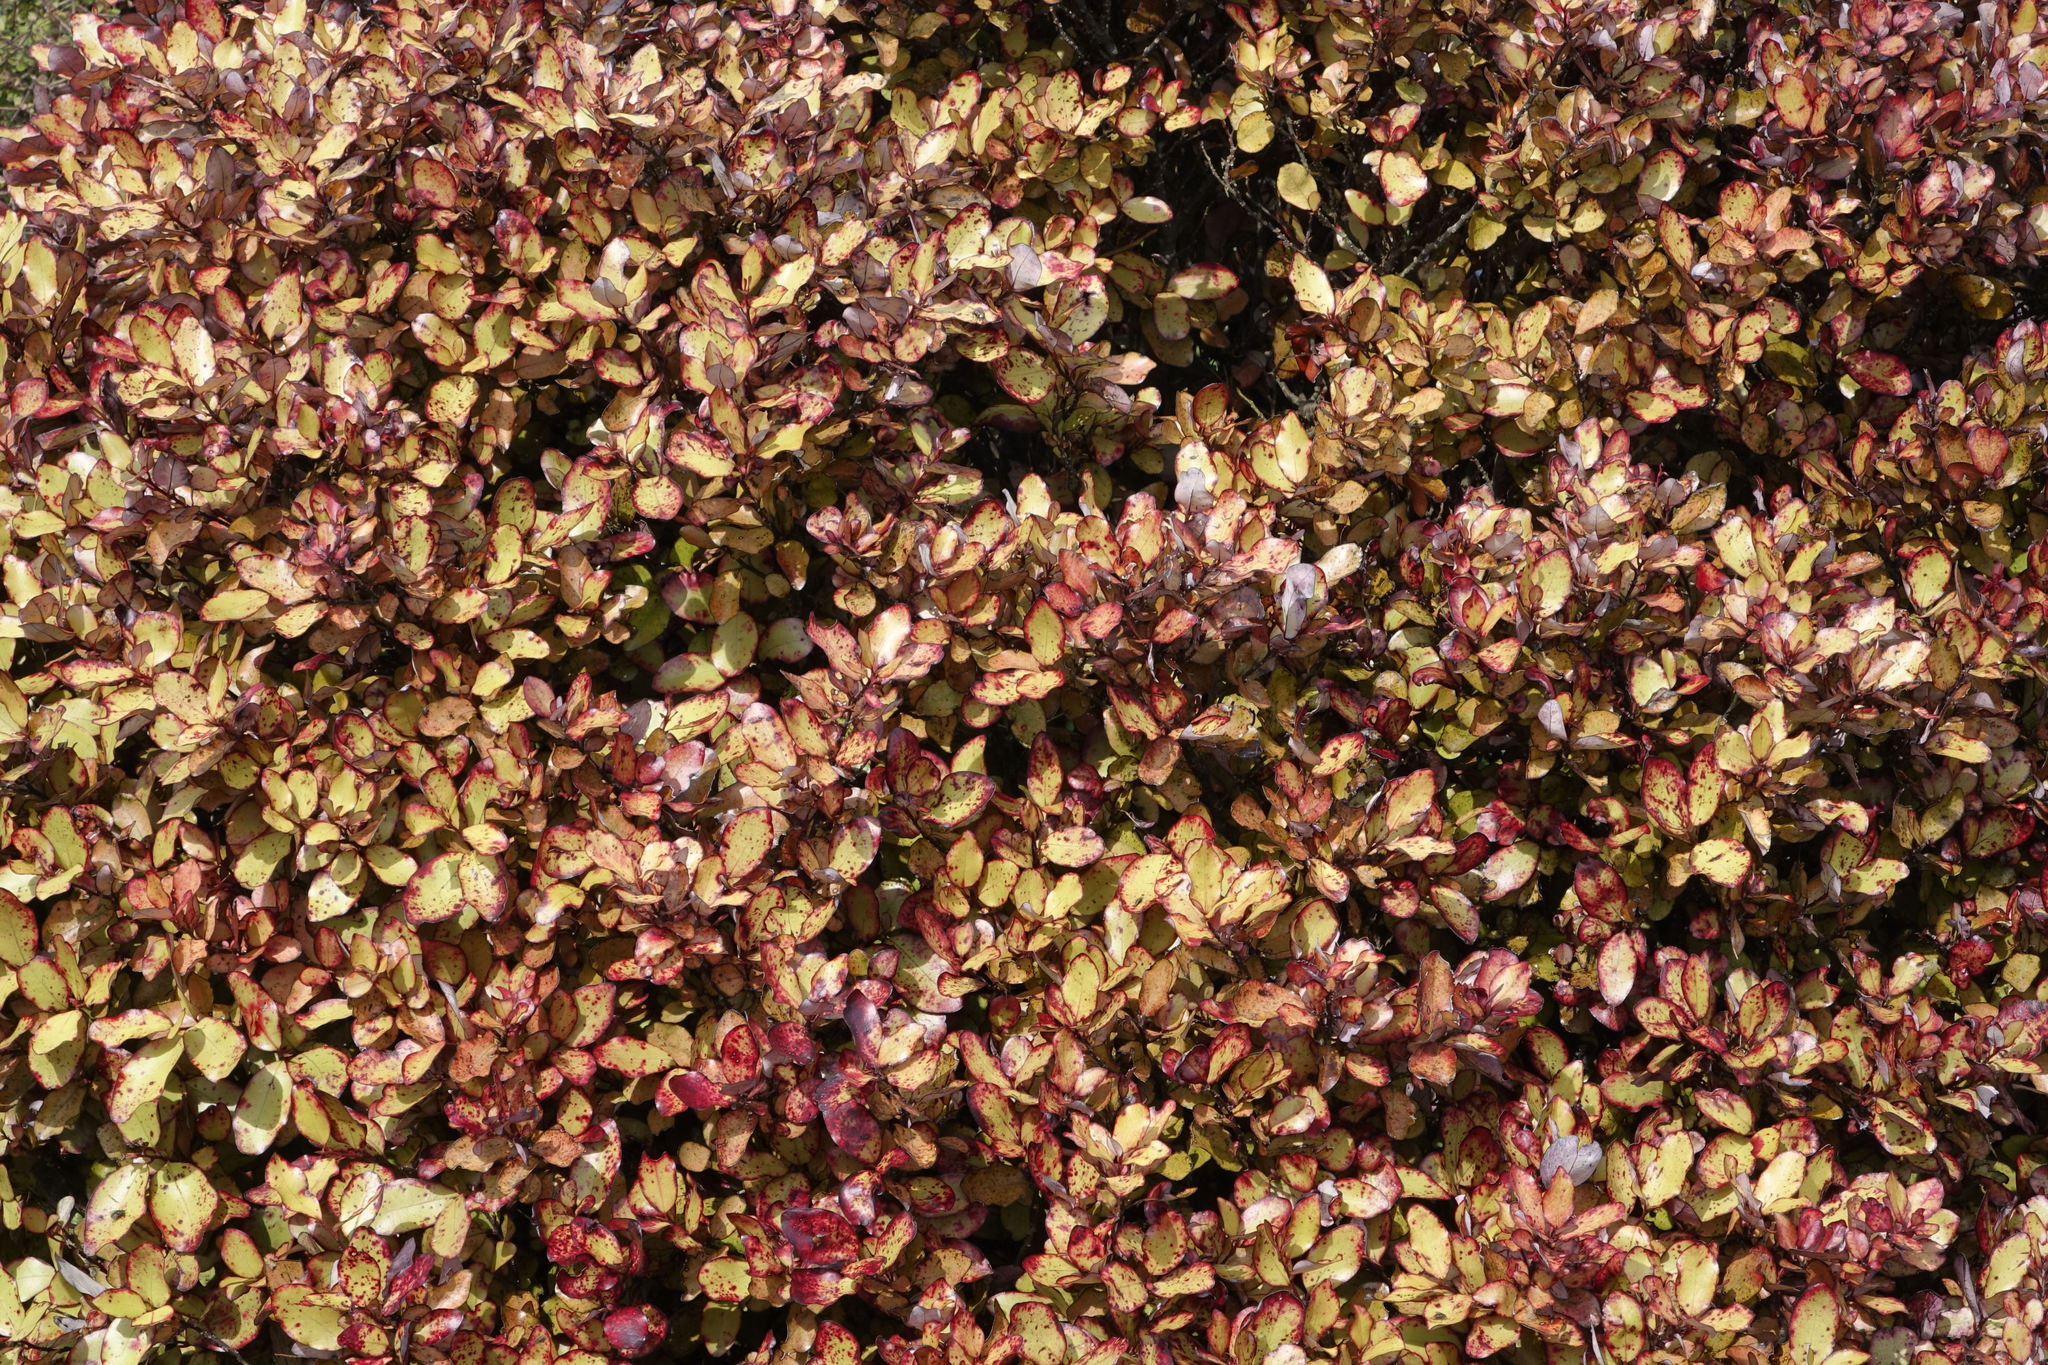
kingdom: Plantae
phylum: Tracheophyta
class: Magnoliopsida
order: Canellales
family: Winteraceae
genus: Pseudowintera
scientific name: Pseudowintera colorata
